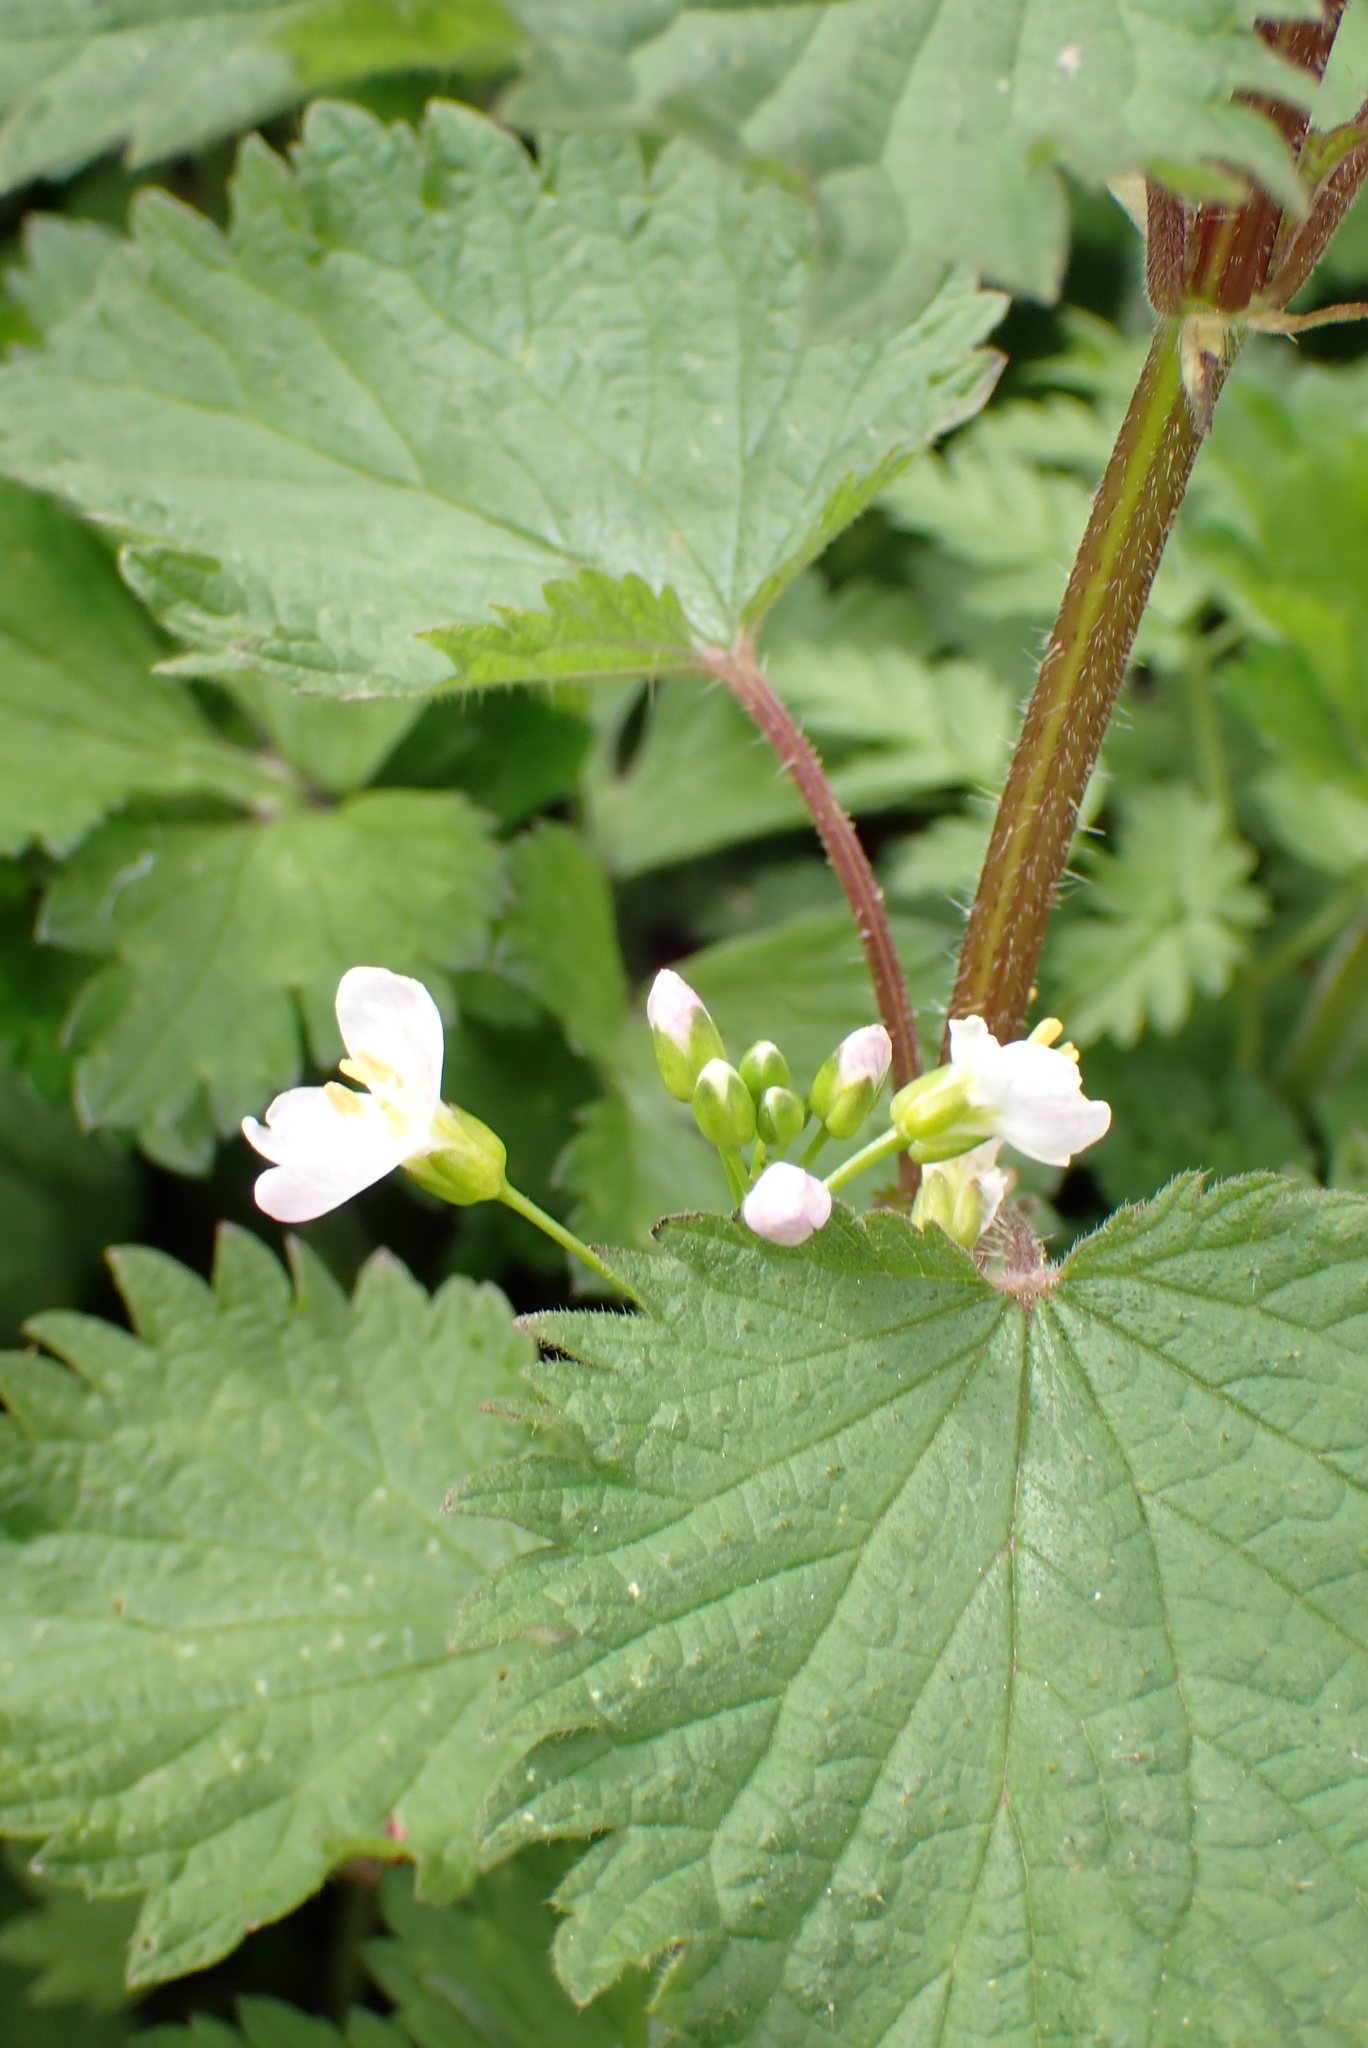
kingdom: Plantae
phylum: Tracheophyta
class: Magnoliopsida
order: Brassicales
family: Brassicaceae
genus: Cardamine
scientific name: Cardamine pratensis
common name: Cuckoo flower
